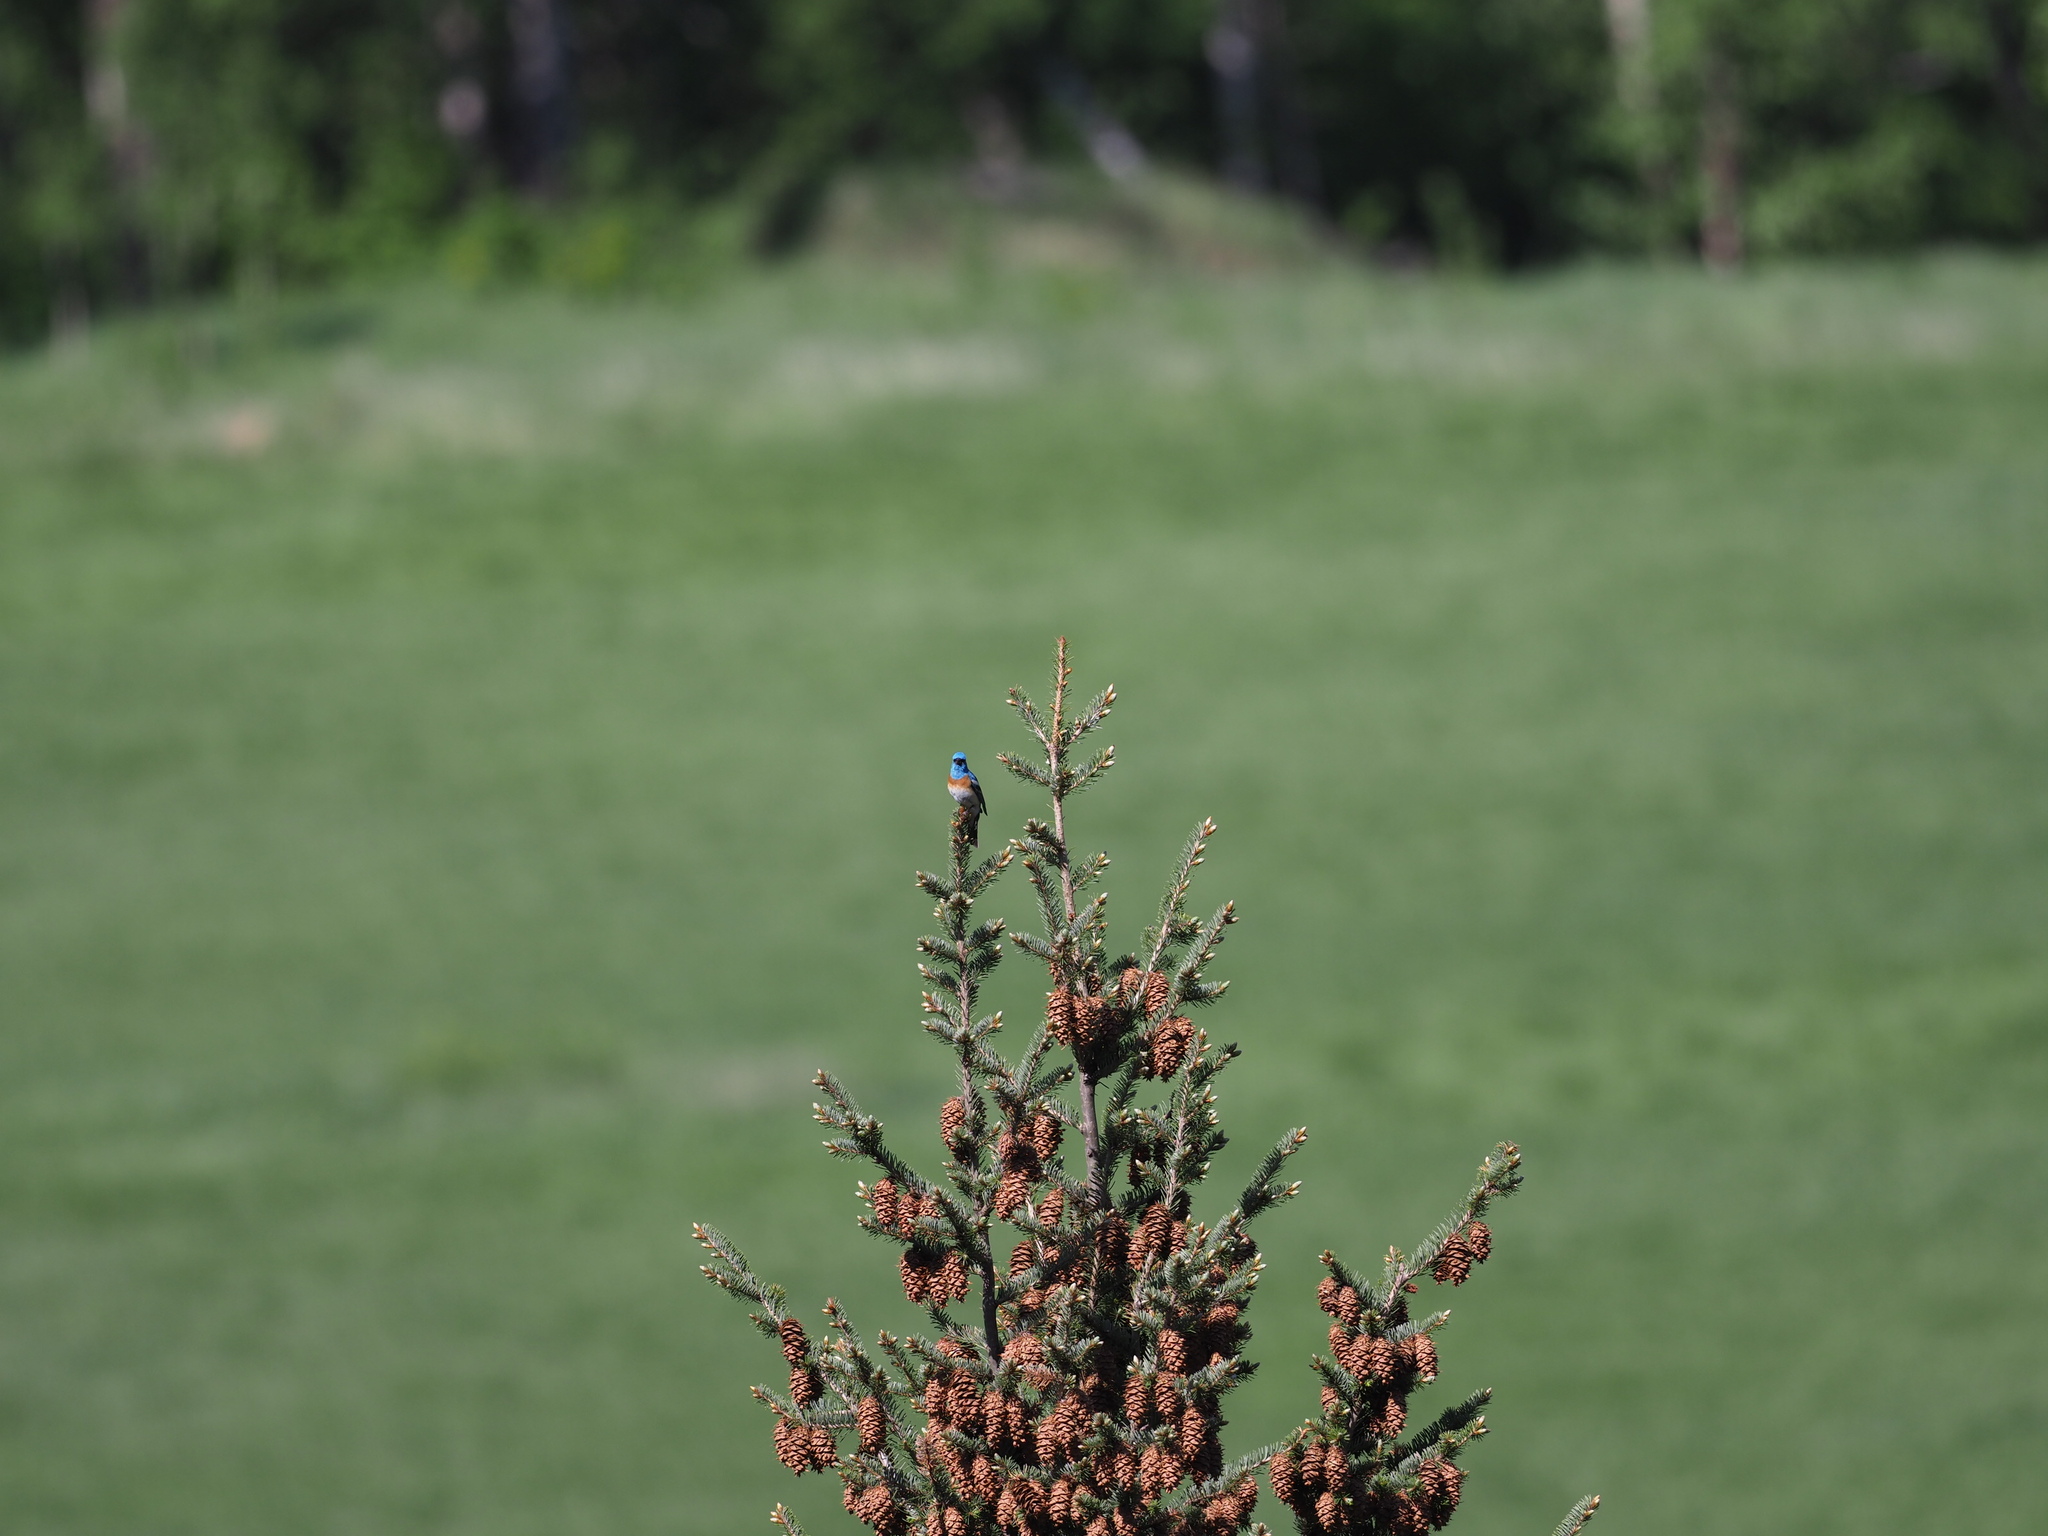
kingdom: Animalia
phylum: Chordata
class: Aves
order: Passeriformes
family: Cardinalidae
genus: Passerina
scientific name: Passerina amoena
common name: Lazuli bunting
